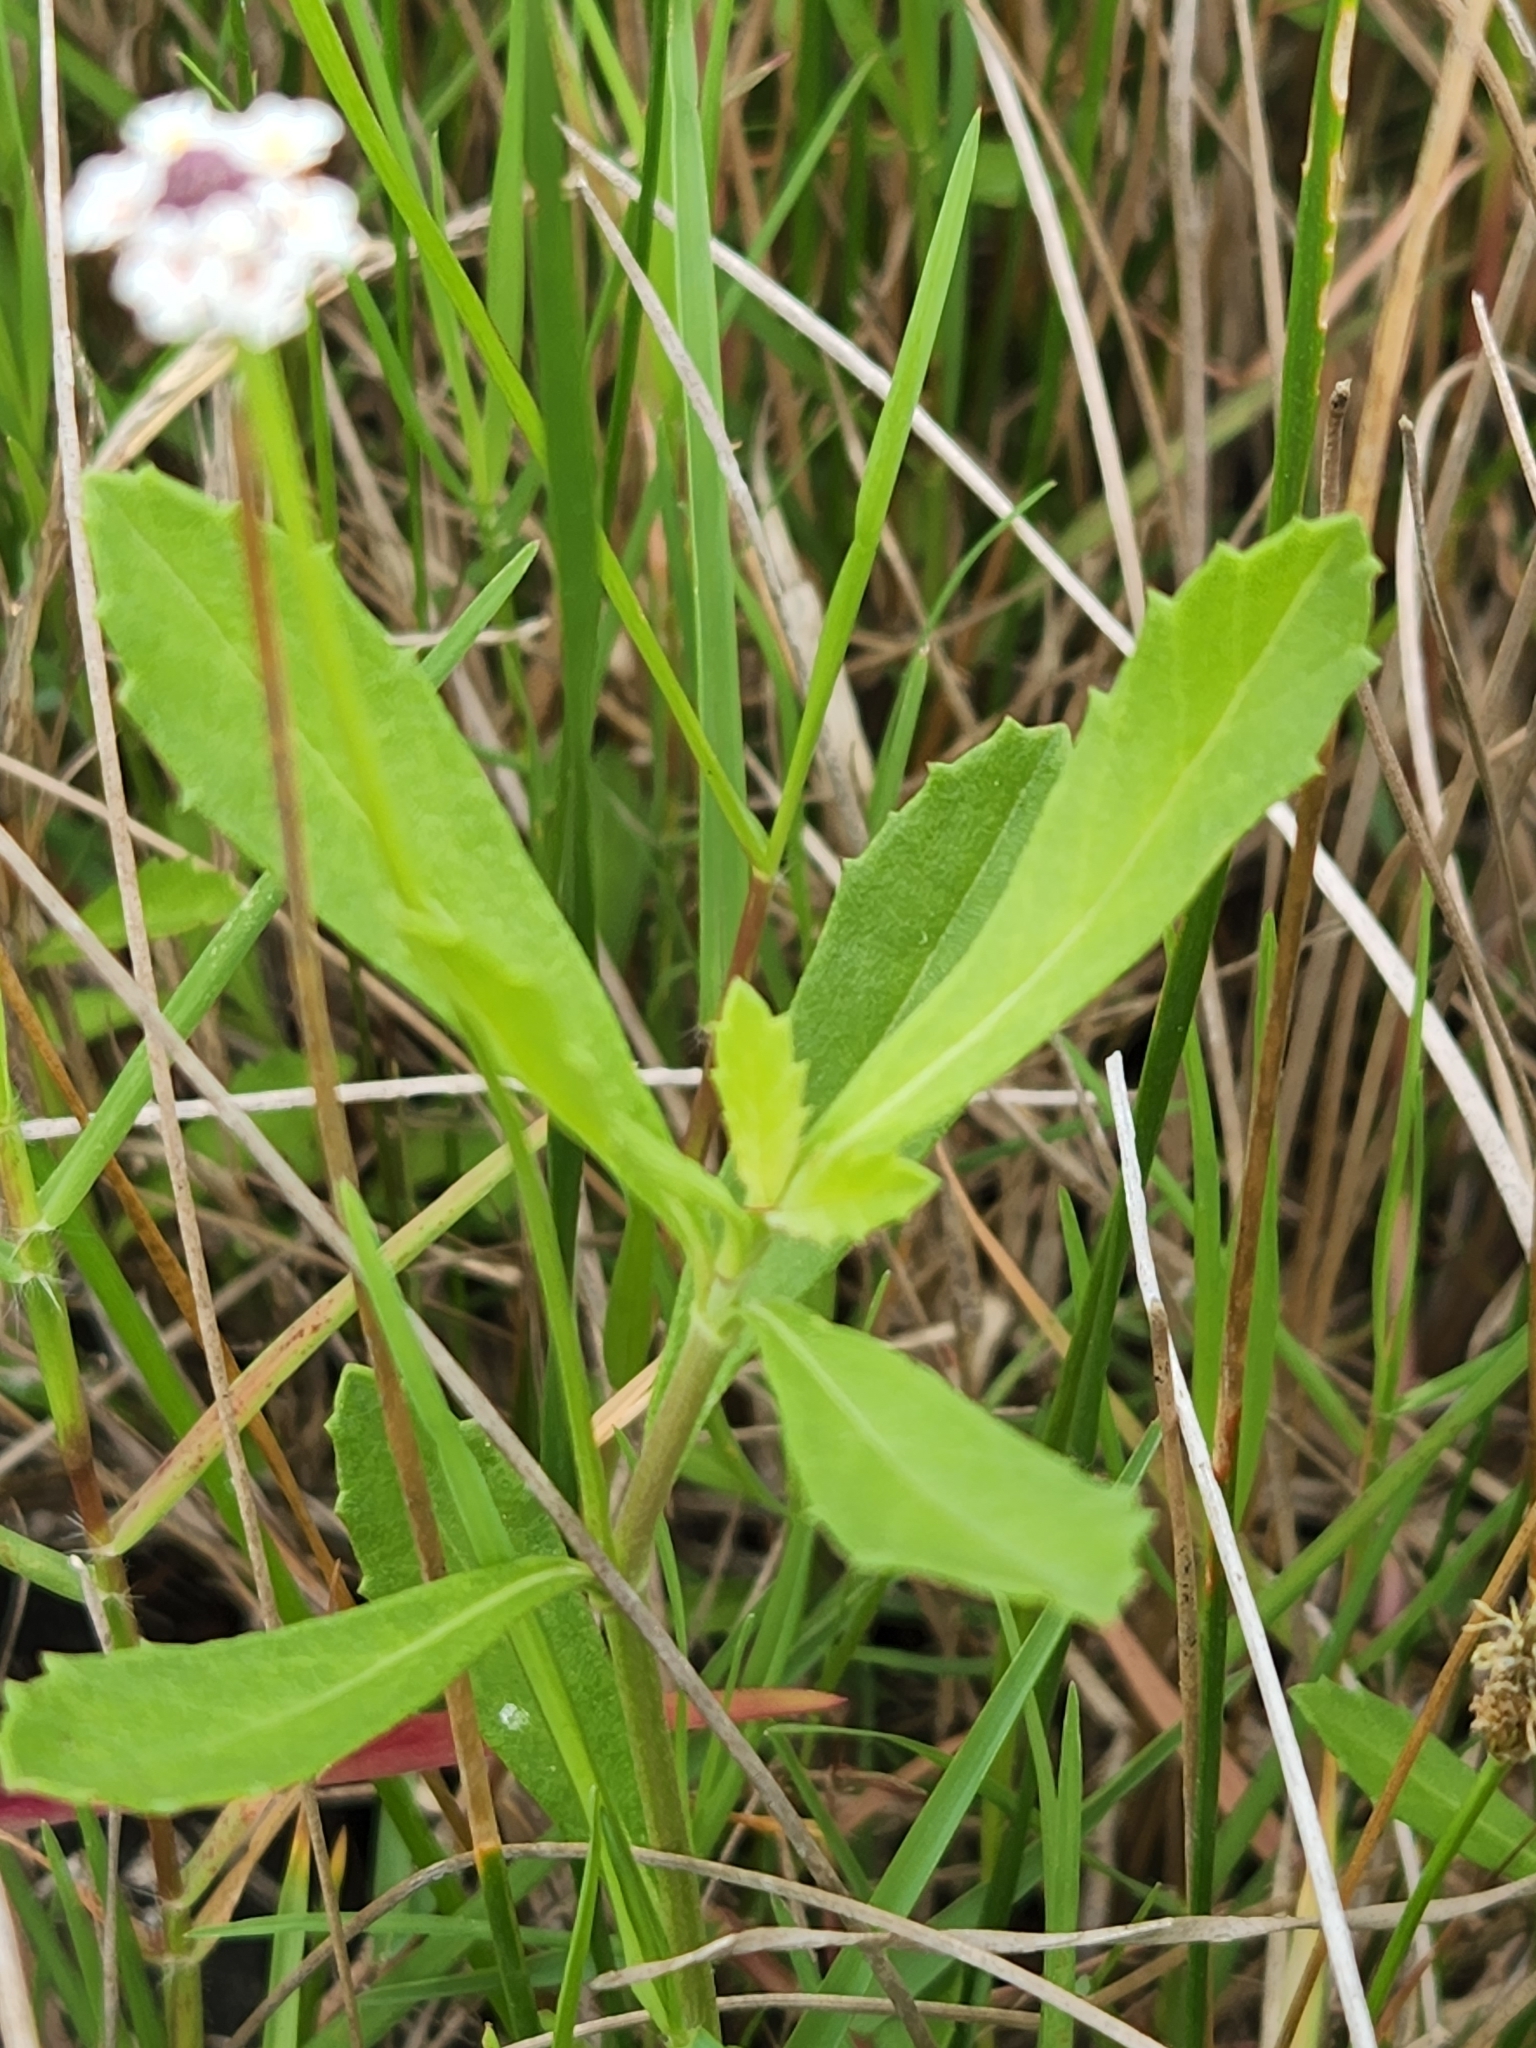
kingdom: Plantae
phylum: Tracheophyta
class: Magnoliopsida
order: Lamiales
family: Verbenaceae
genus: Phyla
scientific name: Phyla nodiflora
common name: Frogfruit
